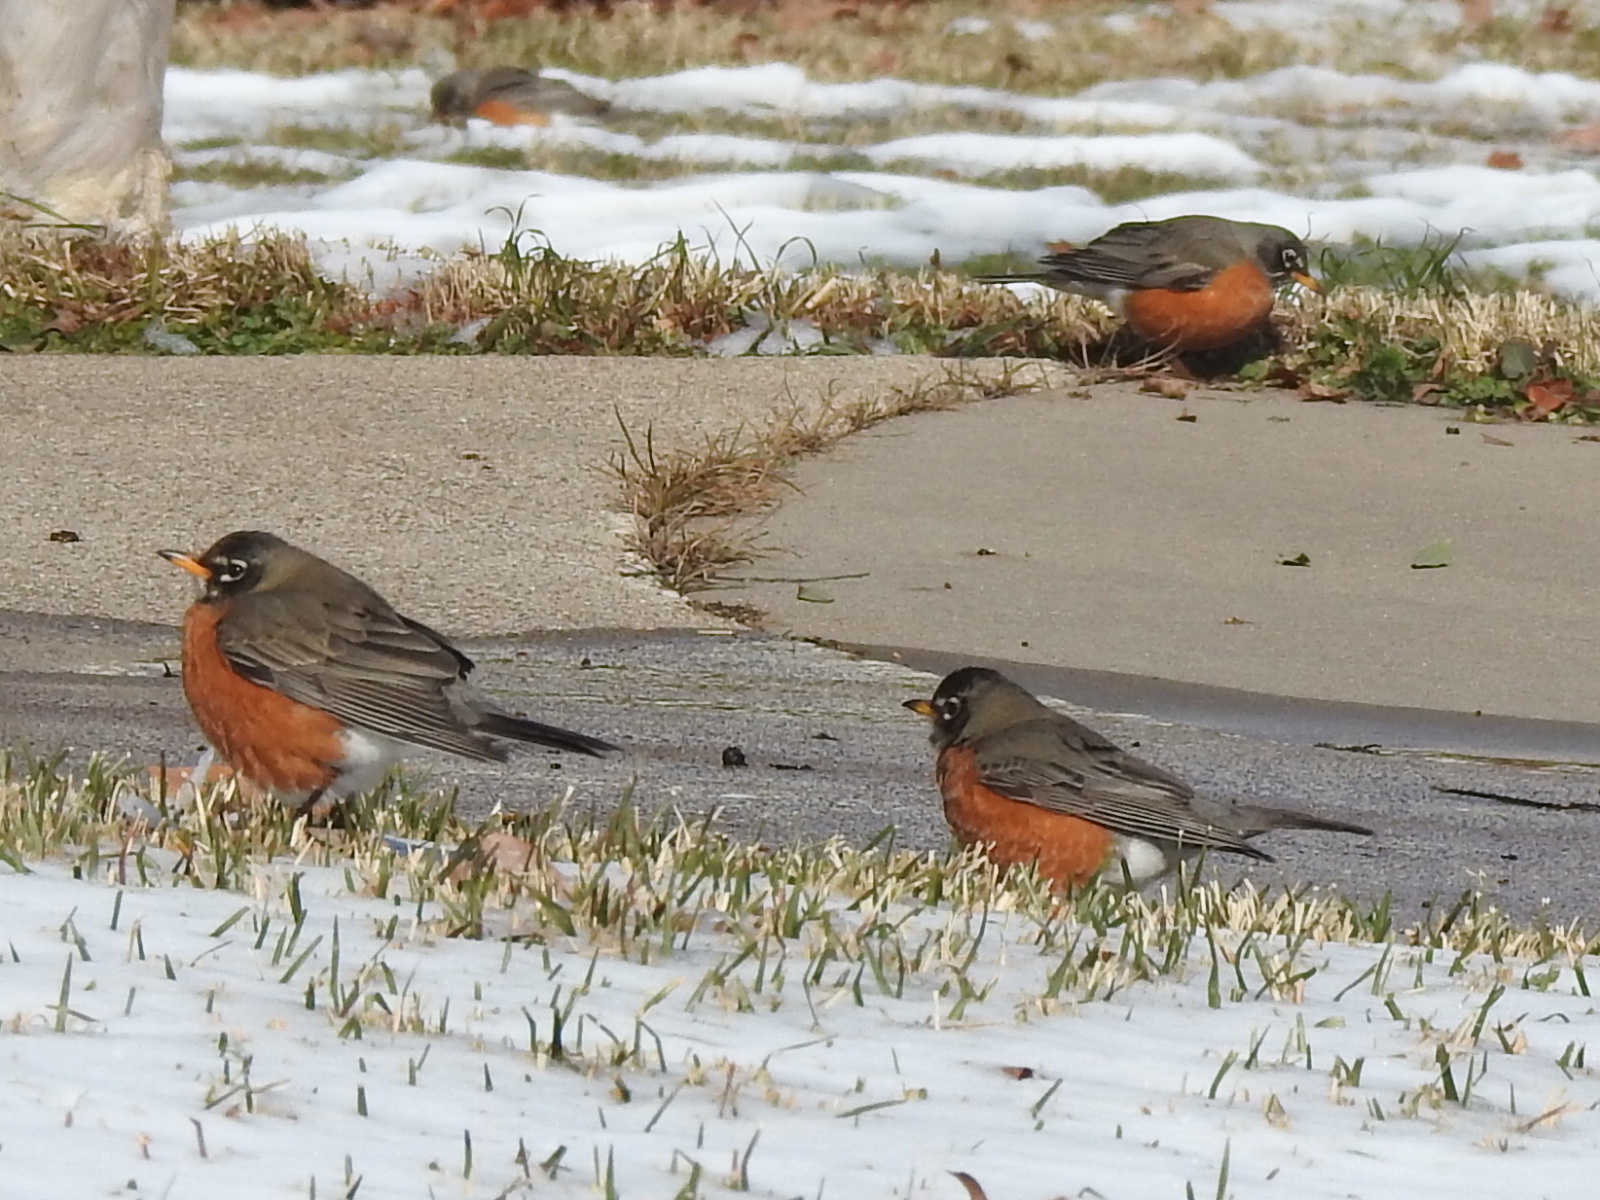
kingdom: Animalia
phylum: Chordata
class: Aves
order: Passeriformes
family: Turdidae
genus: Turdus
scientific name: Turdus migratorius
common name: American robin
